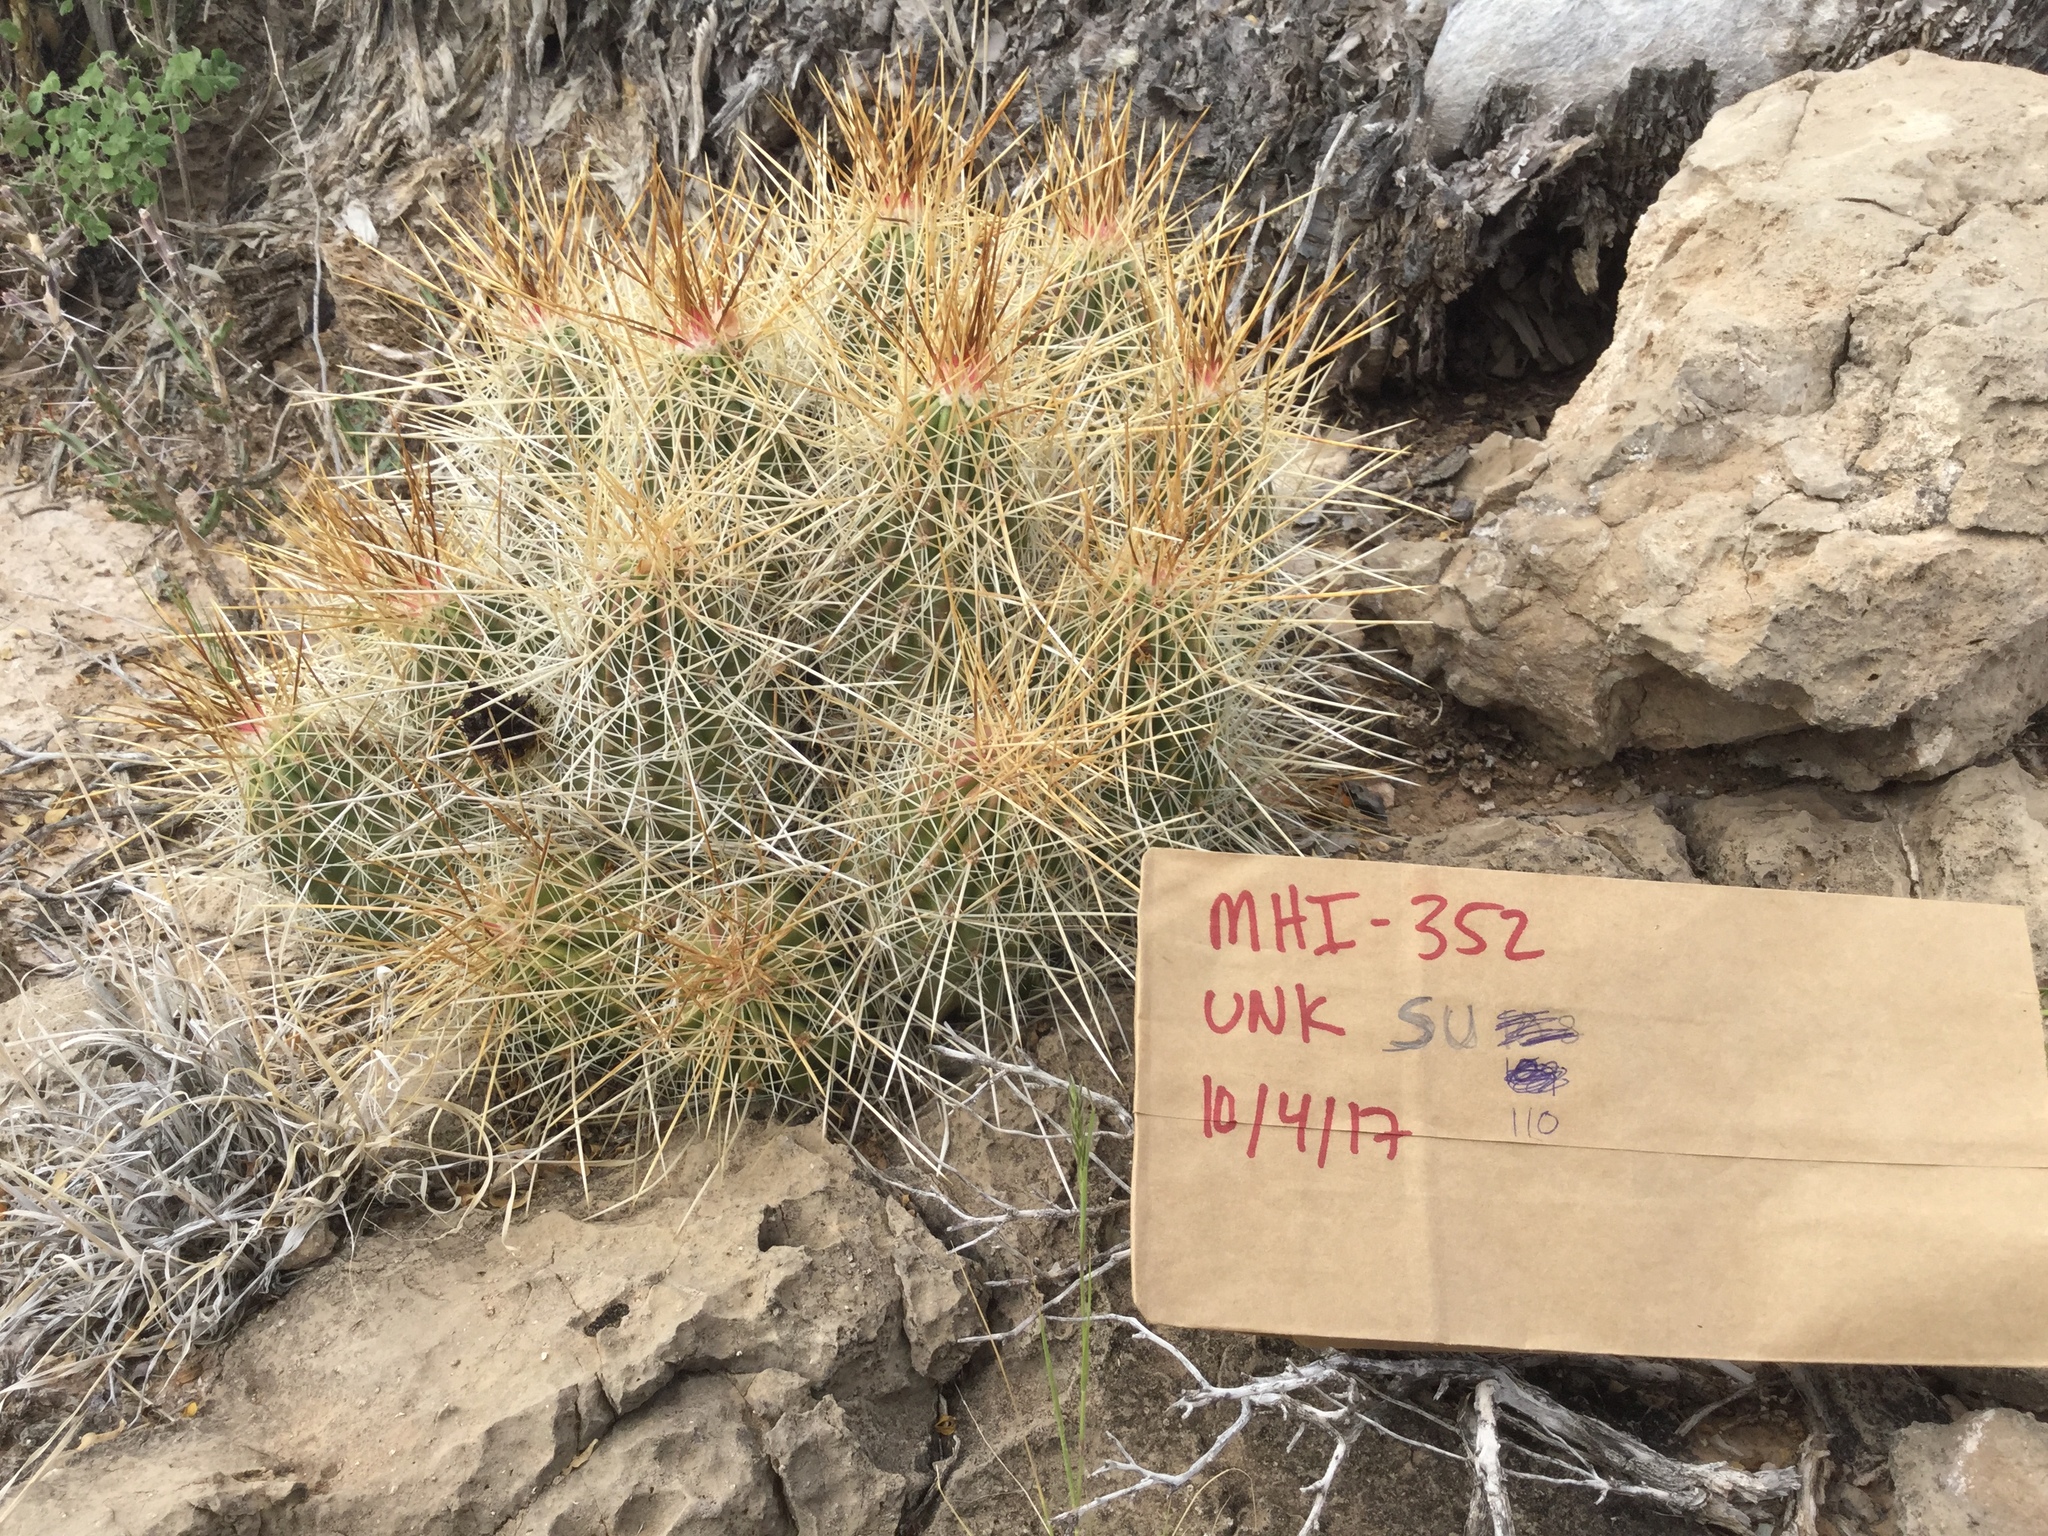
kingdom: Plantae
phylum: Tracheophyta
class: Magnoliopsida
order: Caryophyllales
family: Cactaceae
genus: Echinocereus
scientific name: Echinocereus stramineus
